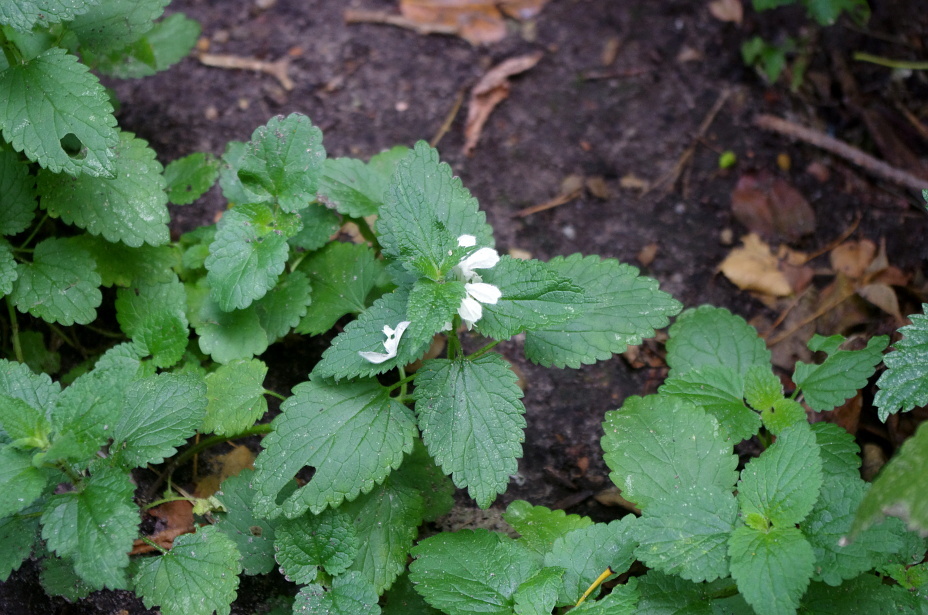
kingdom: Plantae
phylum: Tracheophyta
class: Magnoliopsida
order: Lamiales
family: Lamiaceae
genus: Lamium
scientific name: Lamium album
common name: White dead-nettle
